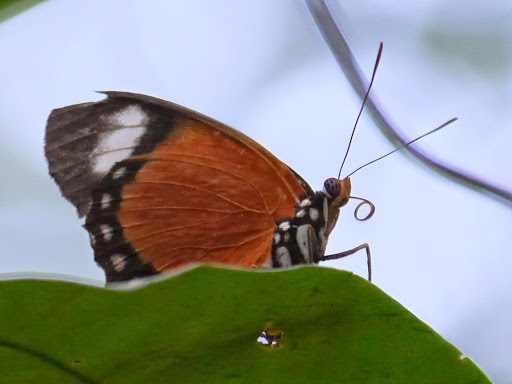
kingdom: Animalia
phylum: Arthropoda
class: Insecta
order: Lepidoptera
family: Nymphalidae
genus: Euphaedra
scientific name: Euphaedra ruspina
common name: Common orange forester
